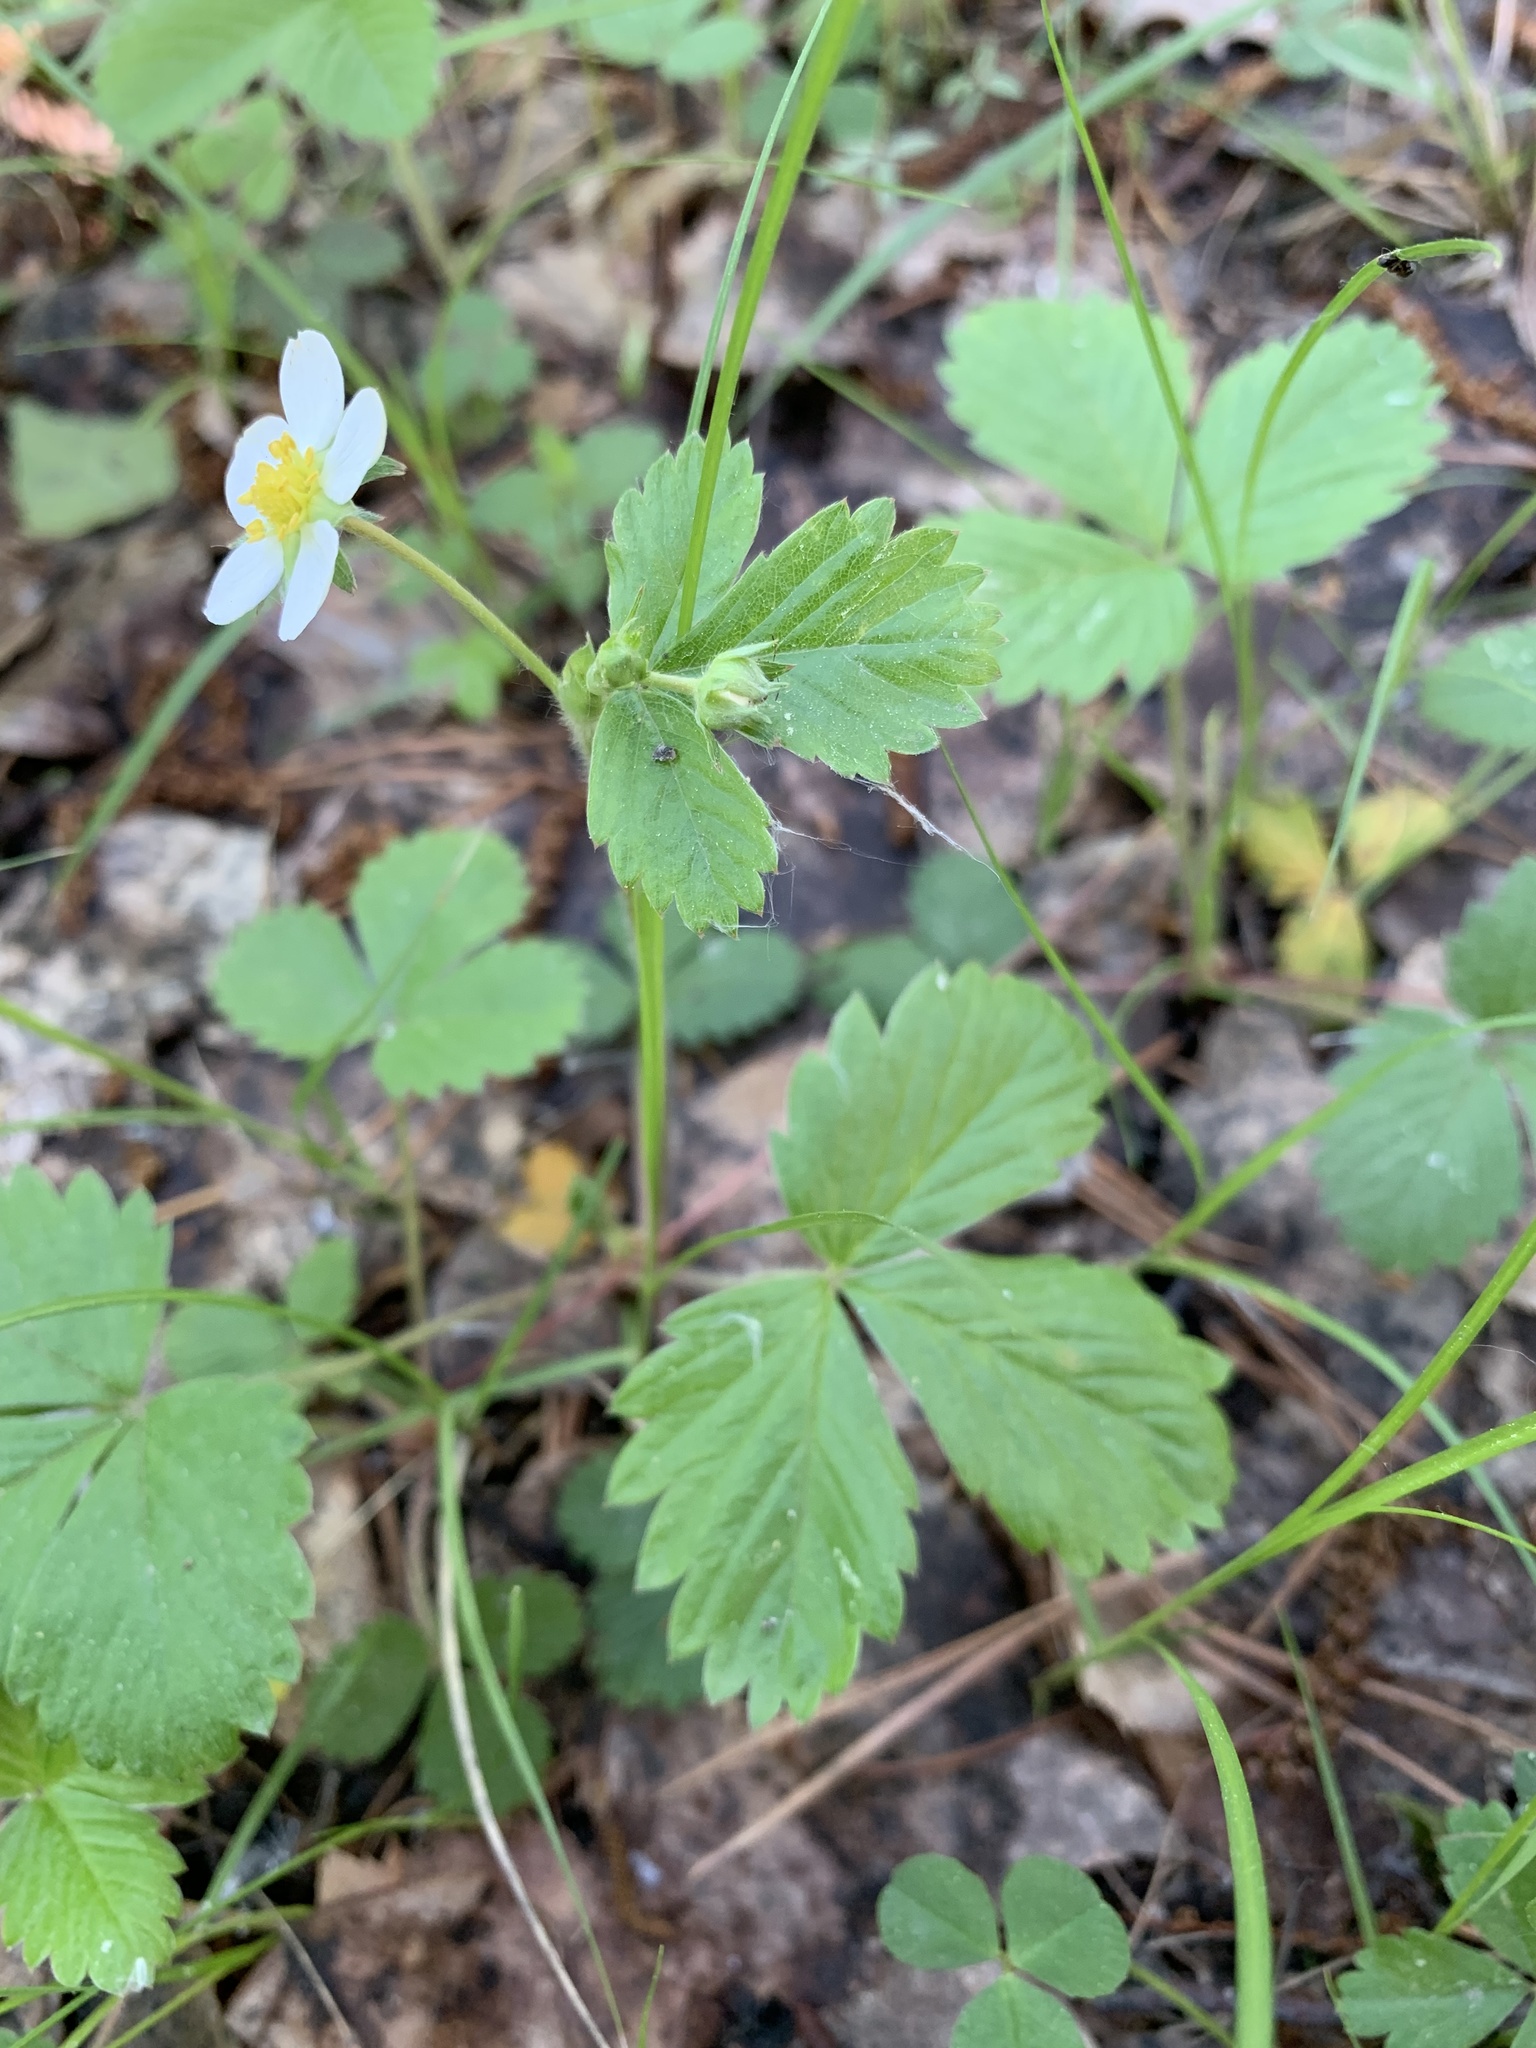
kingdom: Plantae
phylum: Tracheophyta
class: Magnoliopsida
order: Rosales
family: Rosaceae
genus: Fragaria
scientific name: Fragaria vesca
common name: Wild strawberry
